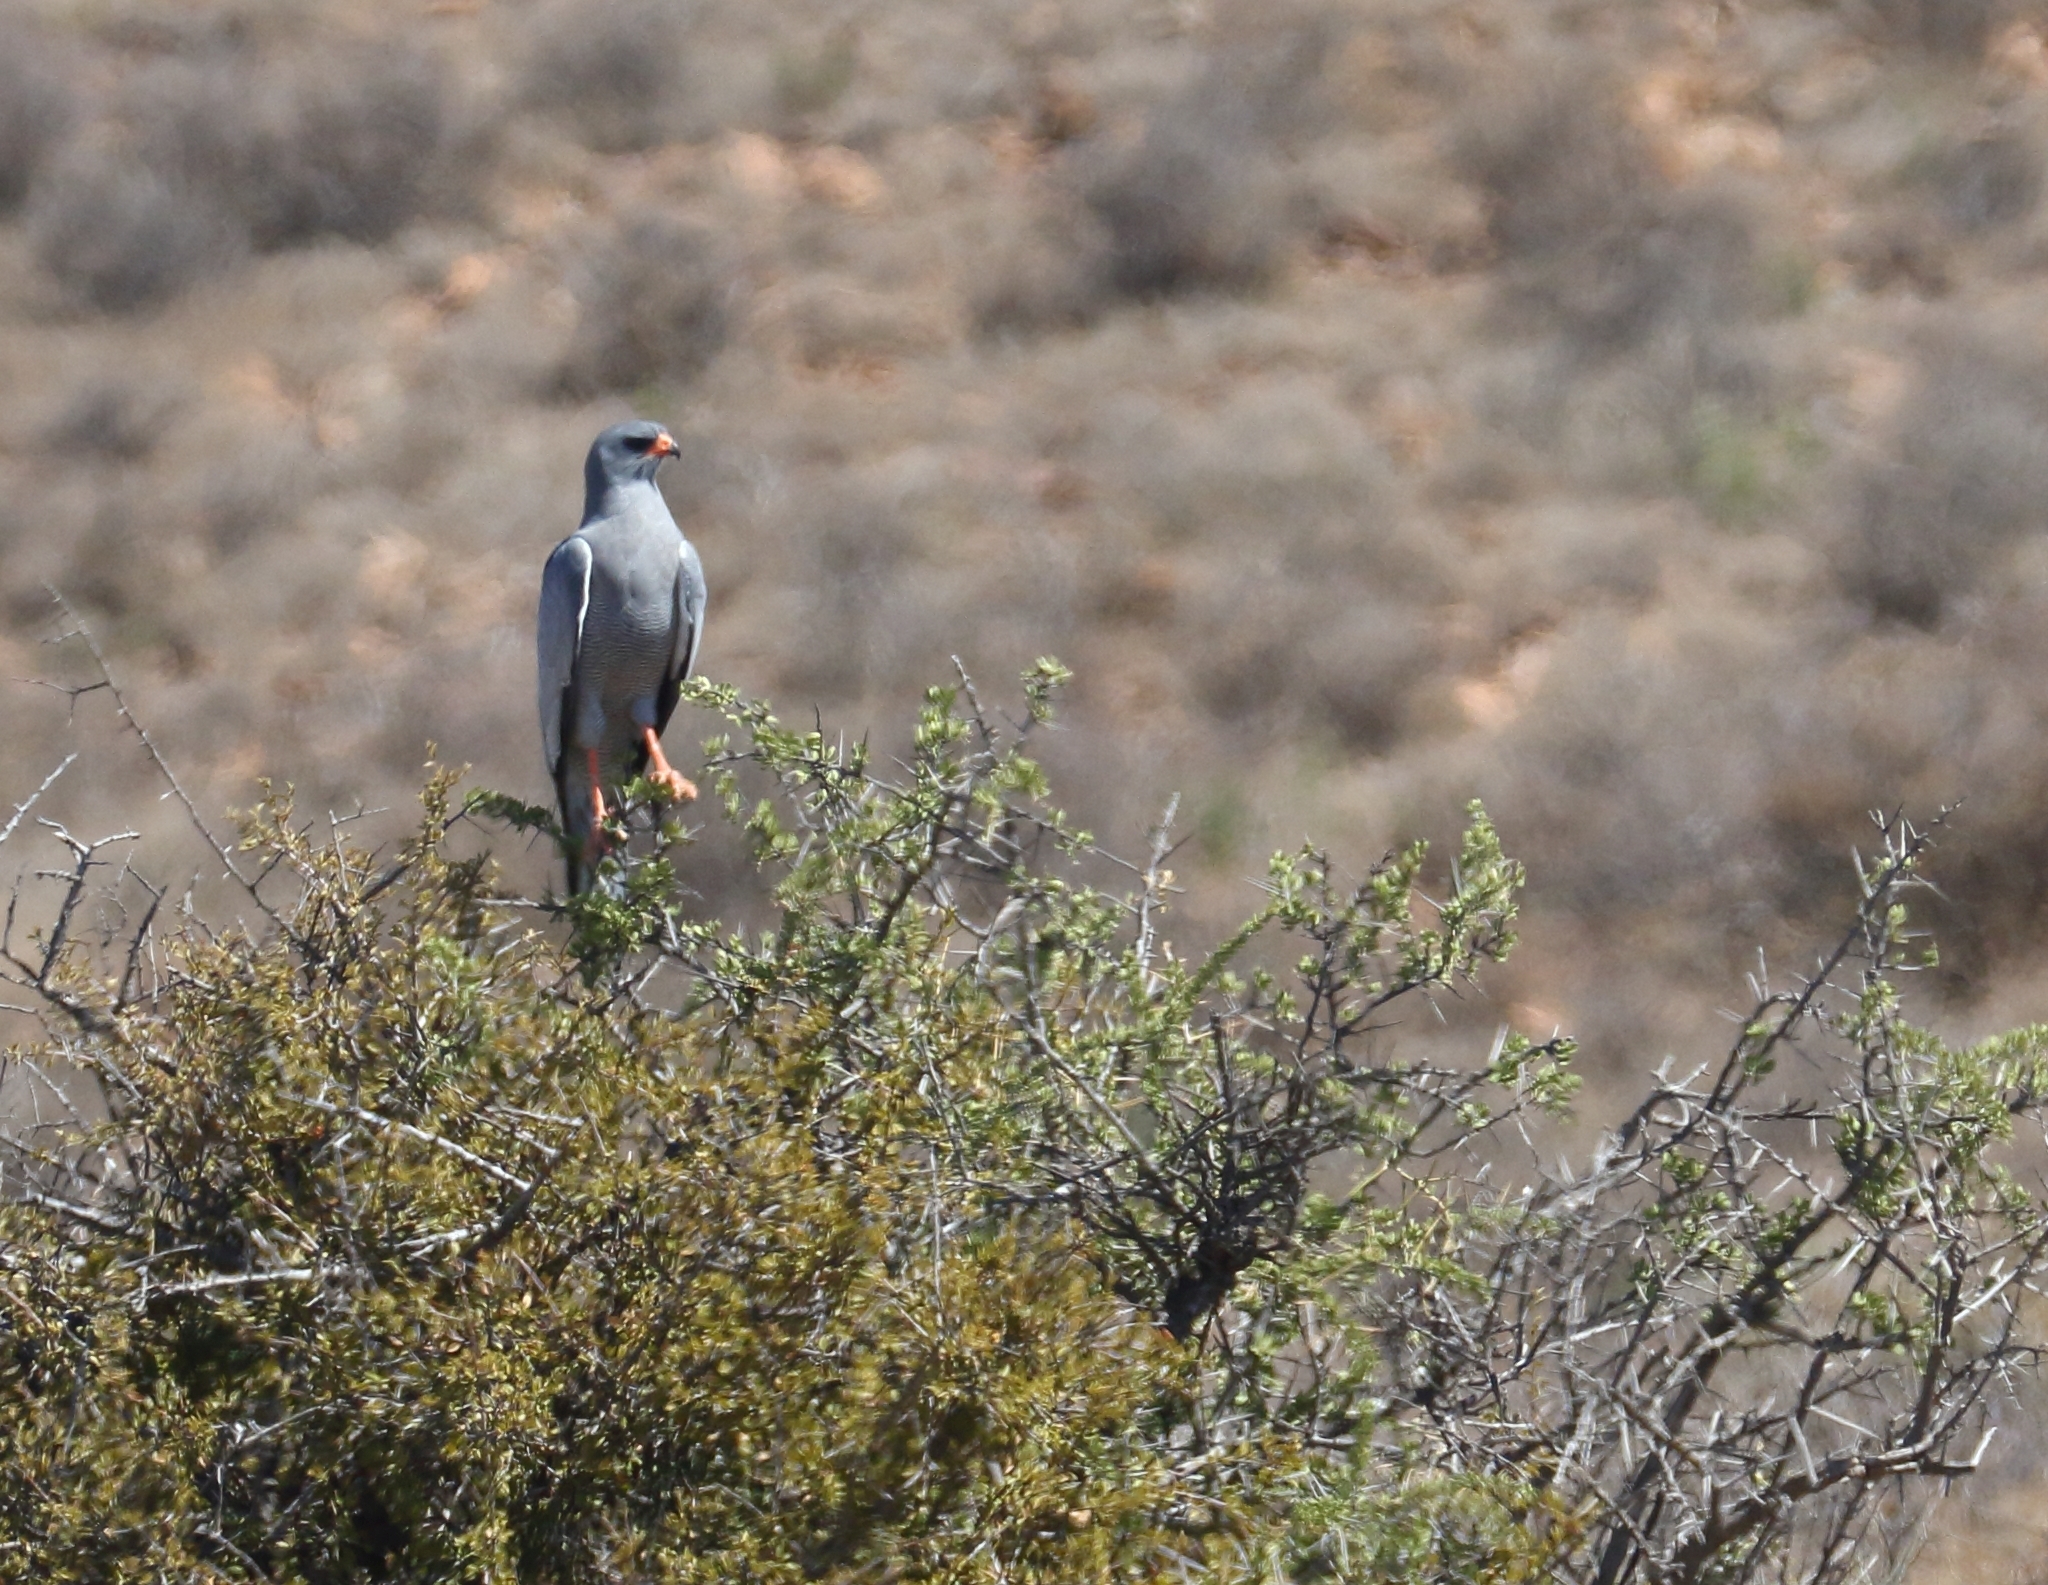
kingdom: Animalia
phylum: Chordata
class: Aves
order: Accipitriformes
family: Accipitridae
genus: Melierax
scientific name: Melierax canorus
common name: Pale chanting-goshawk
